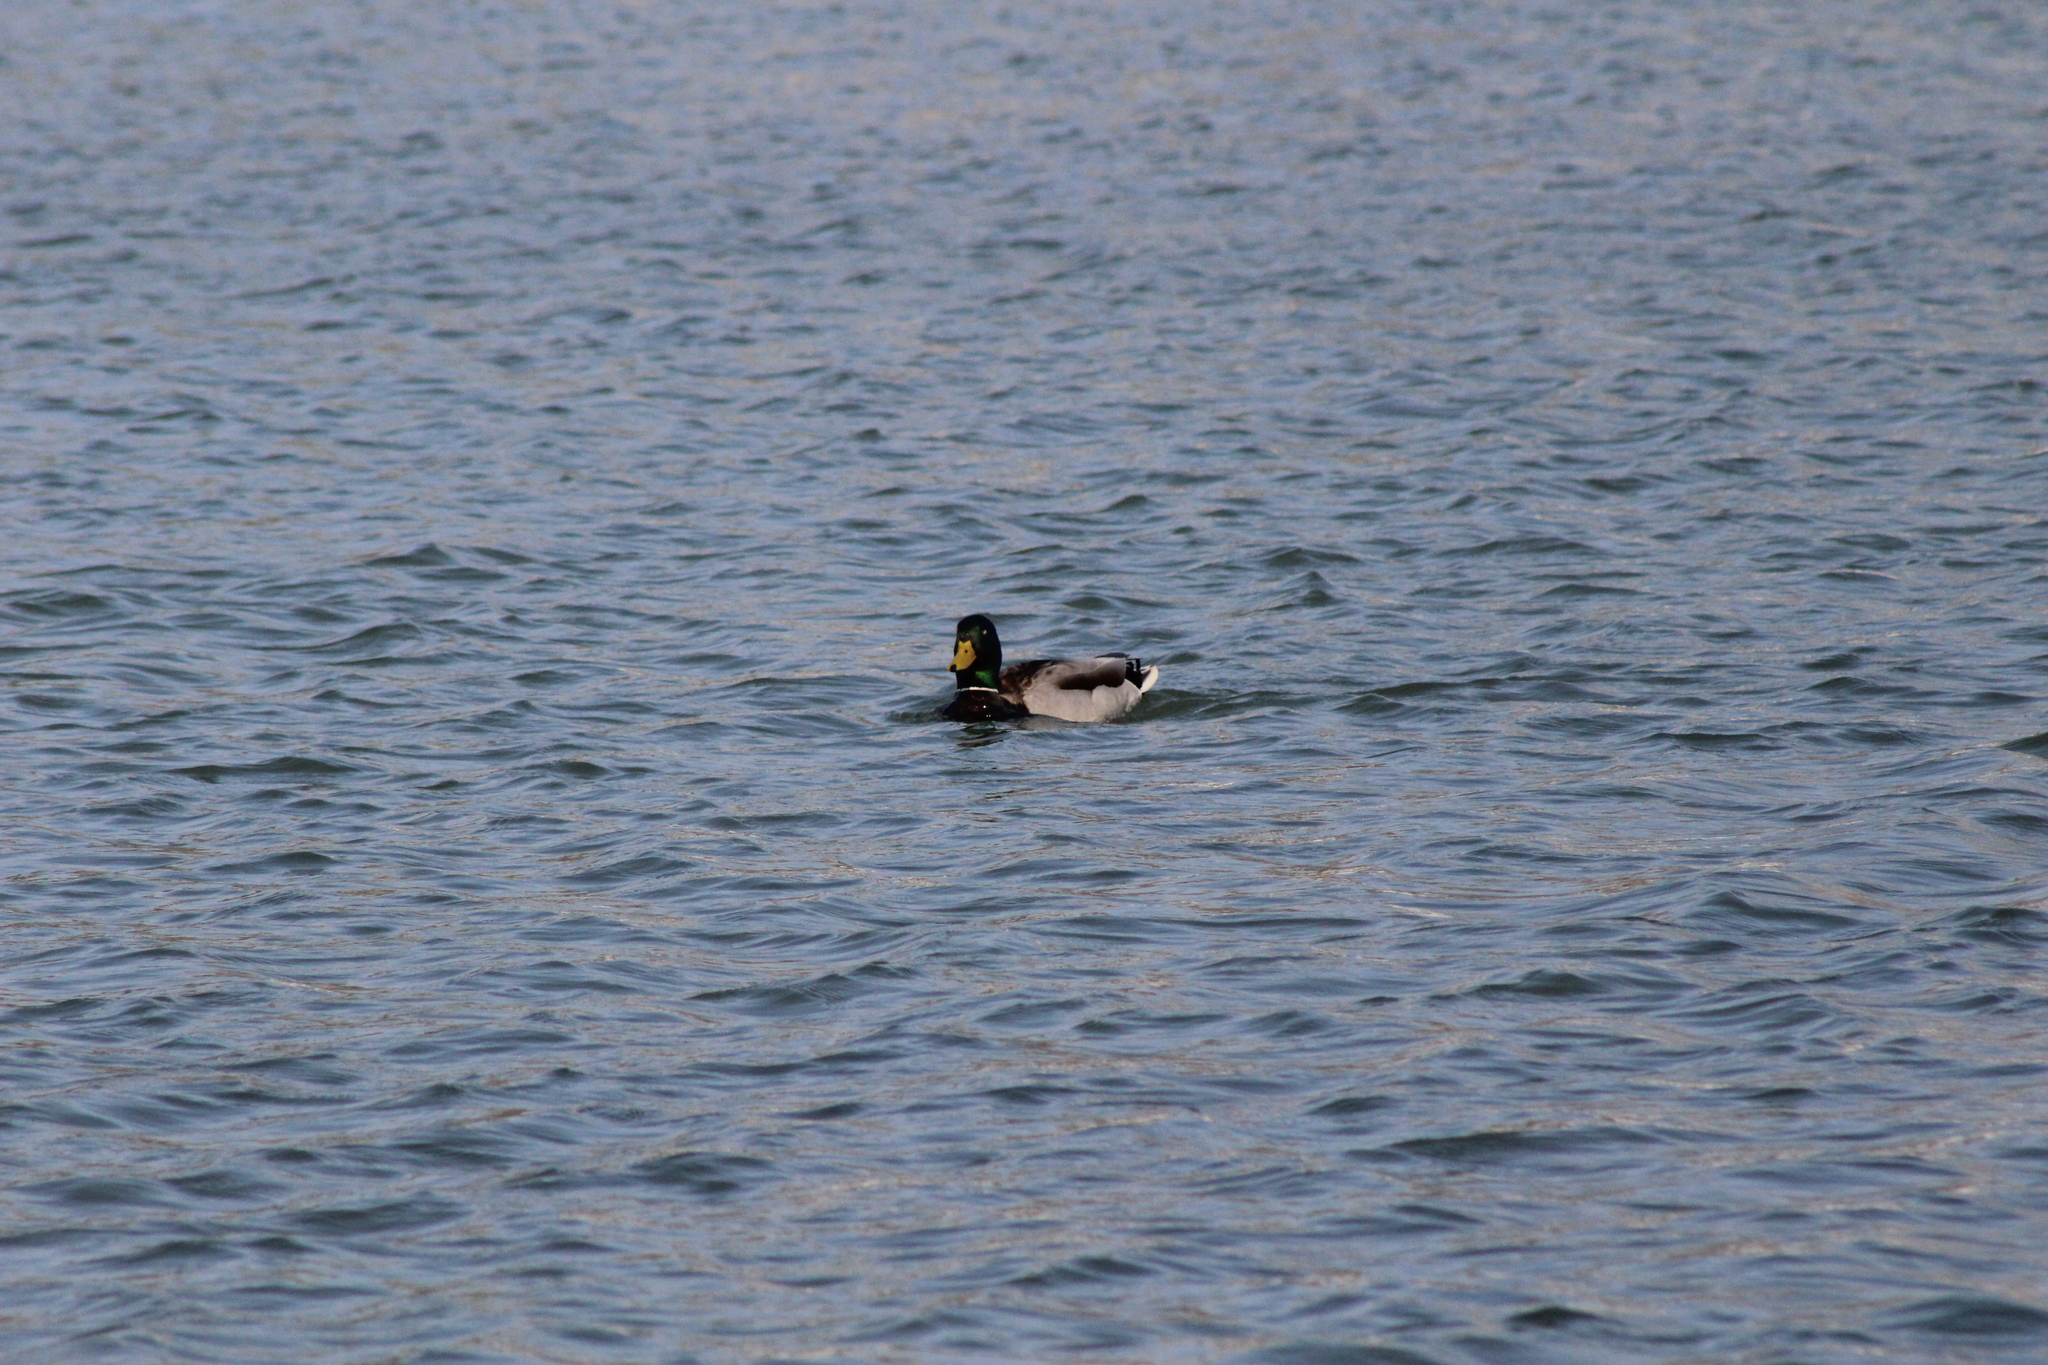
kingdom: Animalia
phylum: Chordata
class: Aves
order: Anseriformes
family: Anatidae
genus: Anas
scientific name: Anas platyrhynchos
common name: Mallard
